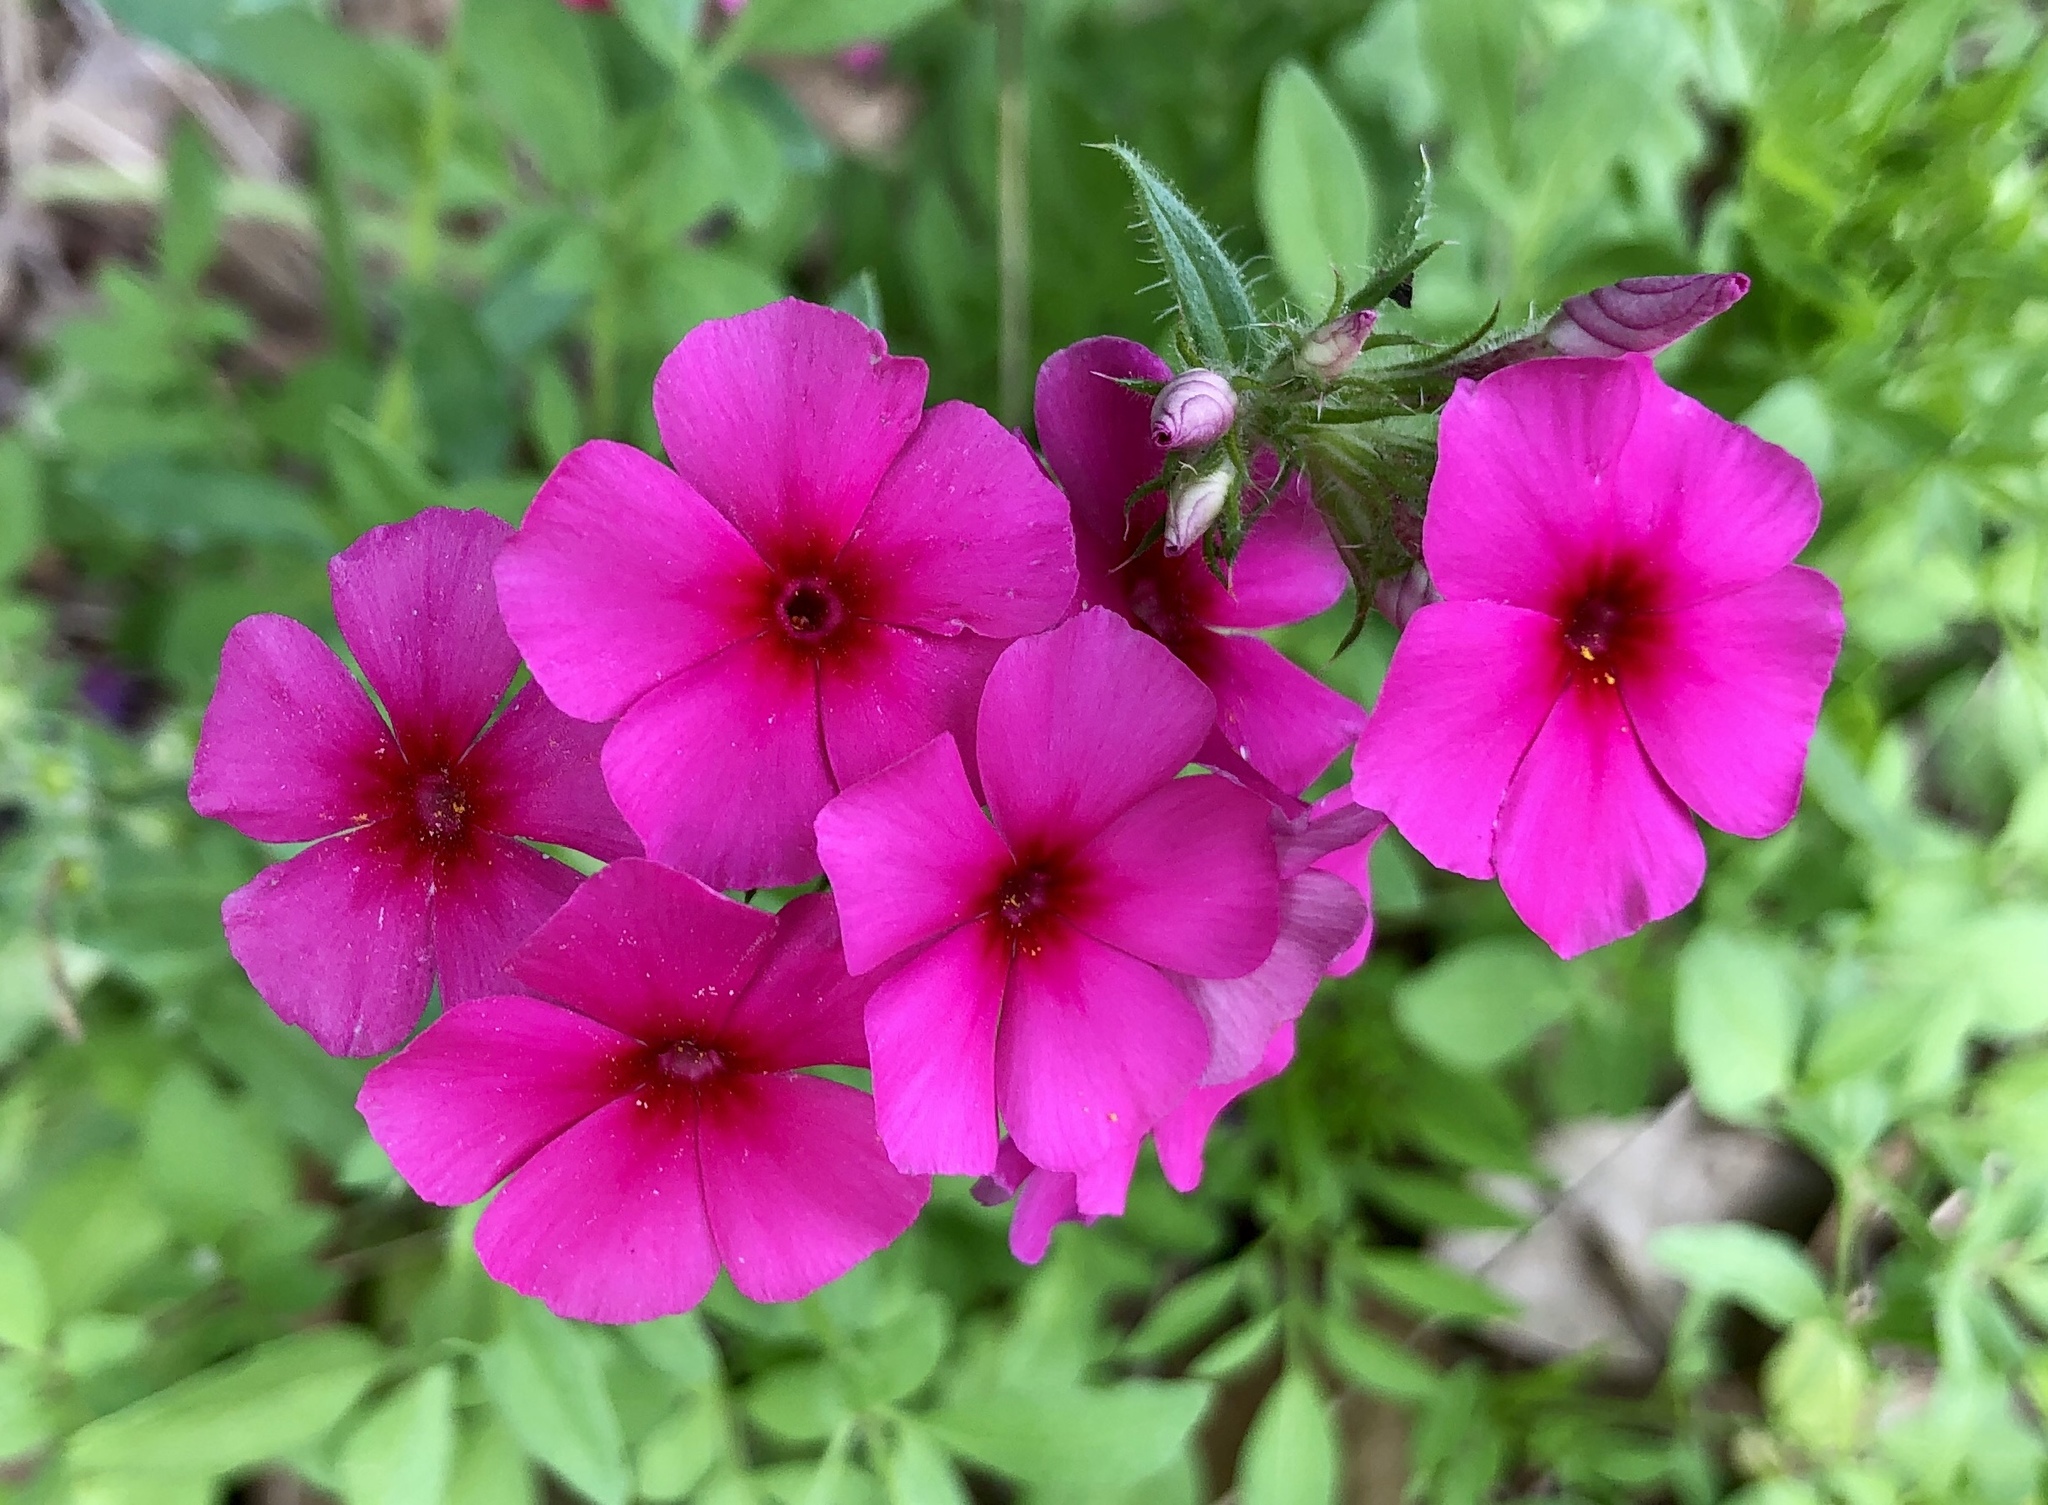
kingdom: Plantae
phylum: Tracheophyta
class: Magnoliopsida
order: Ericales
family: Polemoniaceae
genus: Phlox
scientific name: Phlox drummondii
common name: Drummond's phlox
